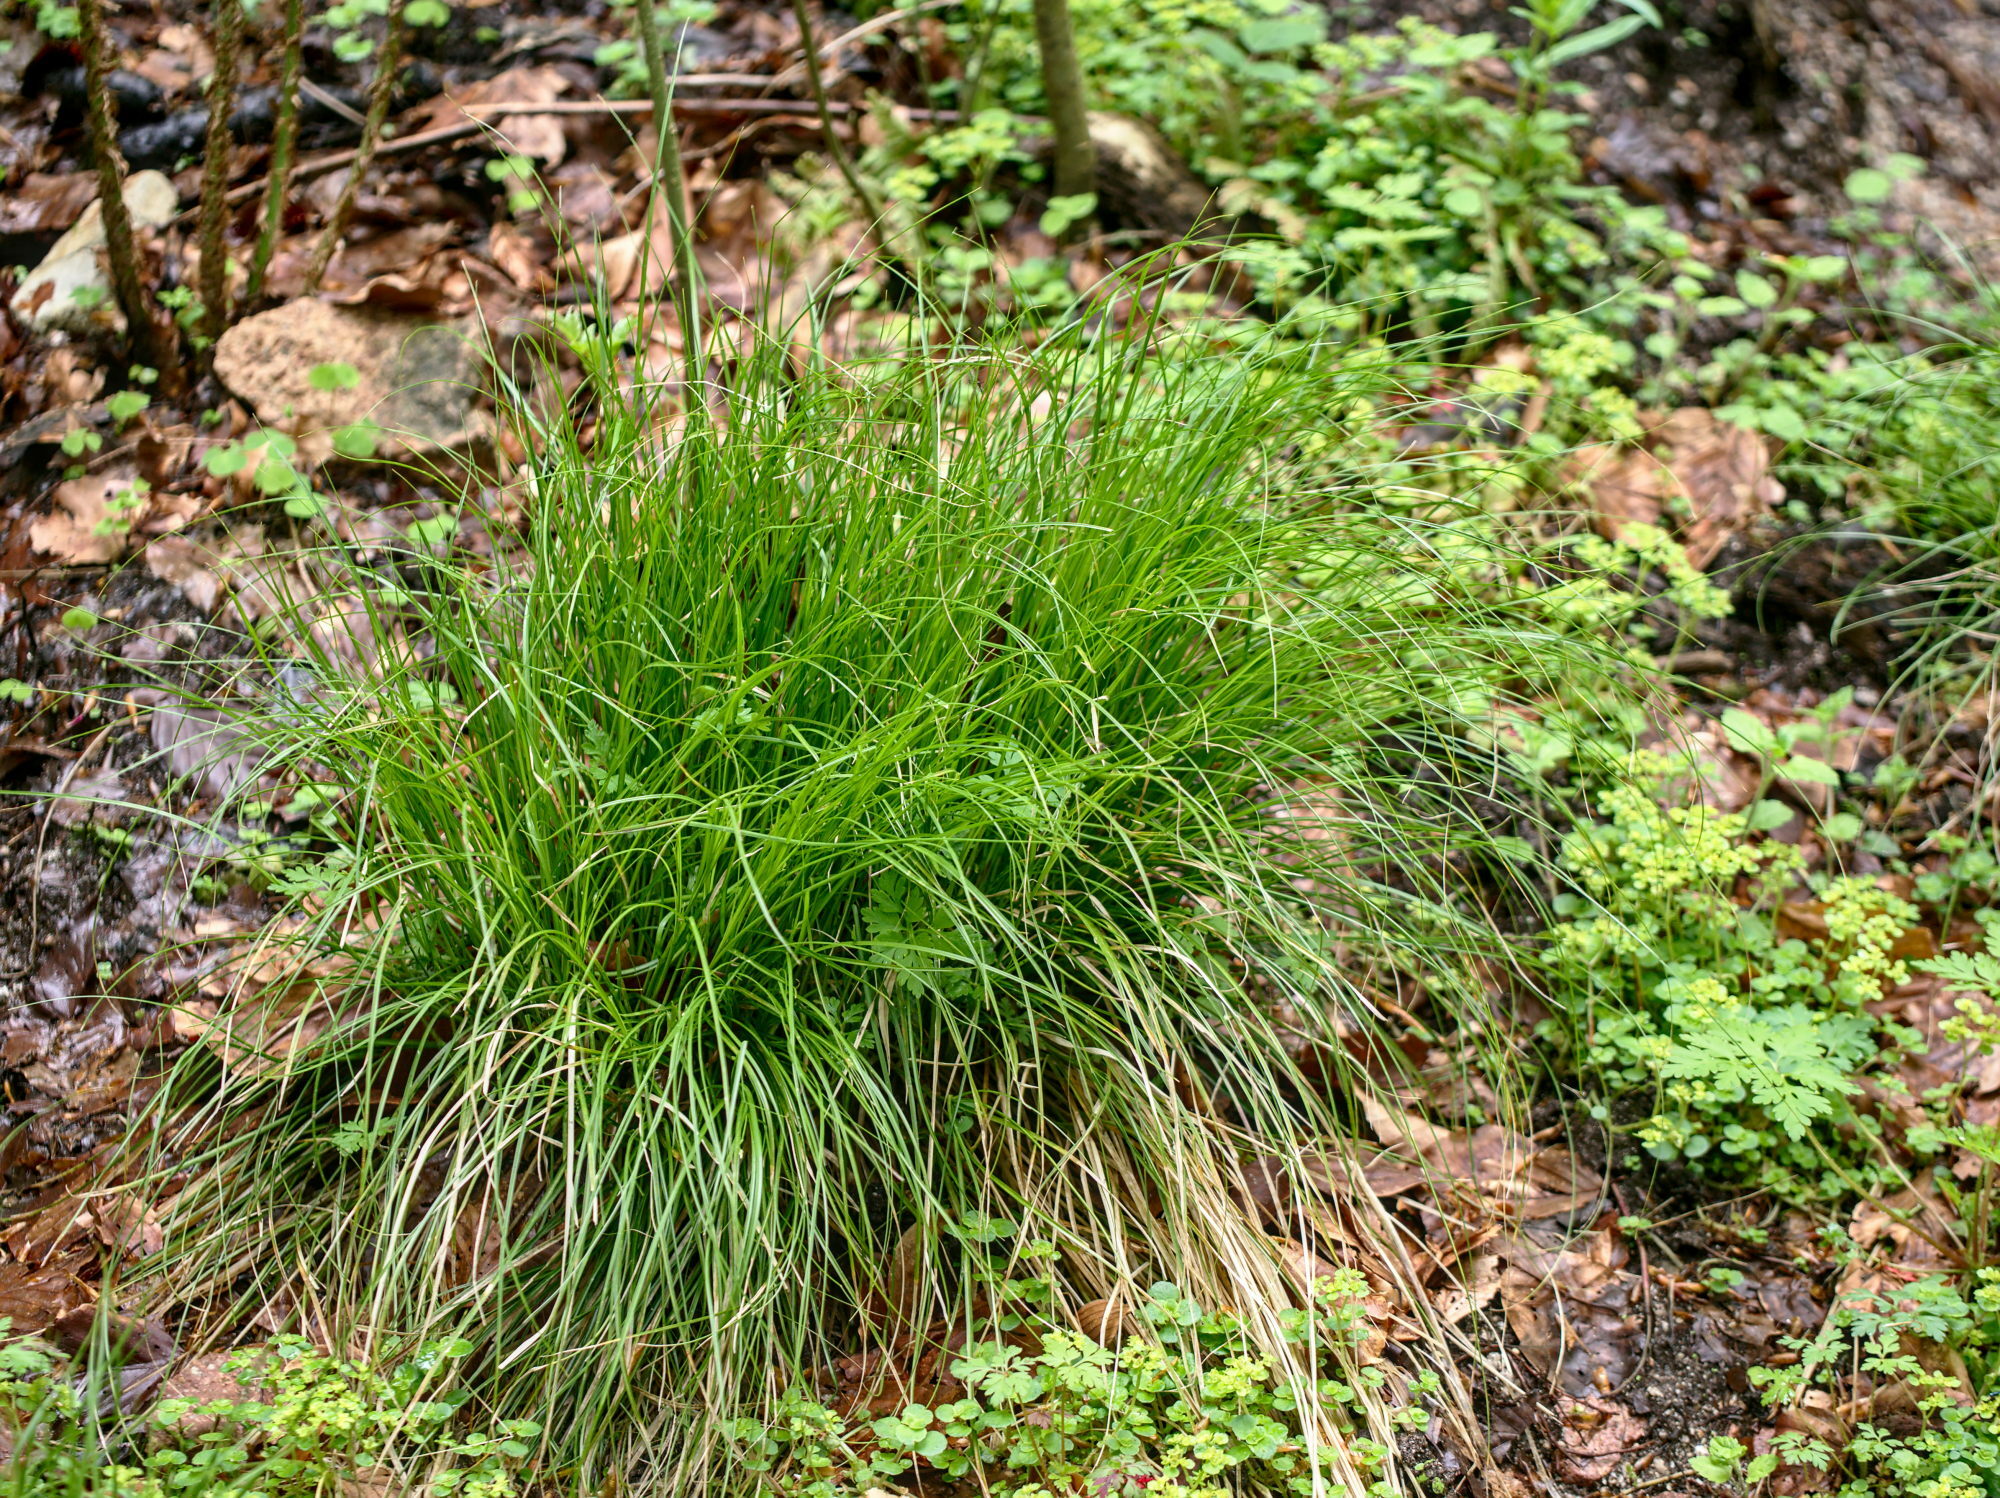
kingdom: Plantae
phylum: Tracheophyta
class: Liliopsida
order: Poales
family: Cyperaceae
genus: Carex
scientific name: Carex remota
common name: Remote sedge
